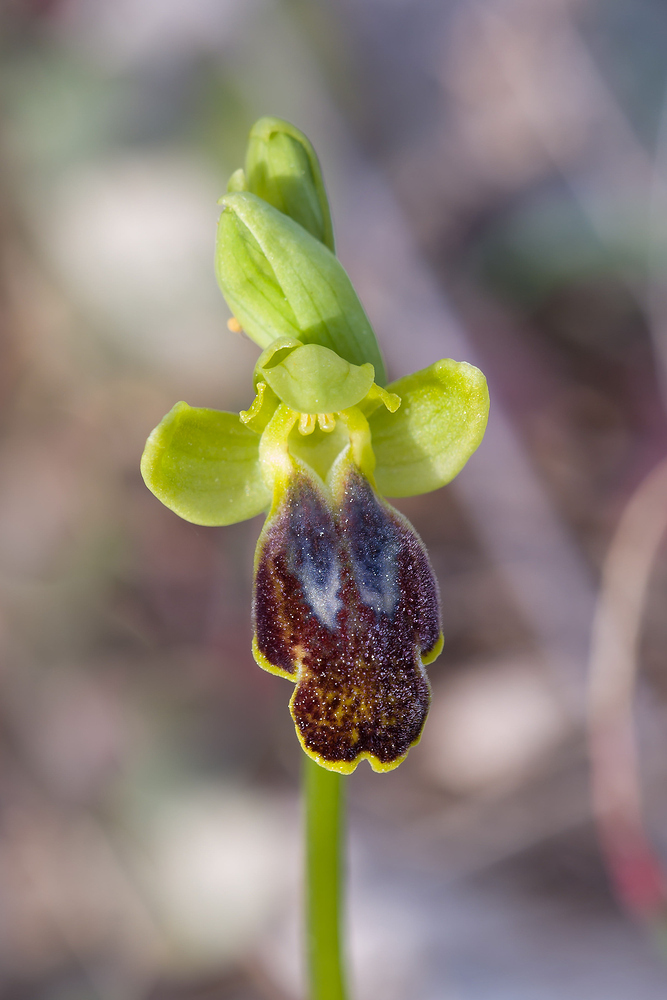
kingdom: Plantae
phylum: Tracheophyta
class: Liliopsida
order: Asparagales
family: Orchidaceae
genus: Ophrys
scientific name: Ophrys fusca
